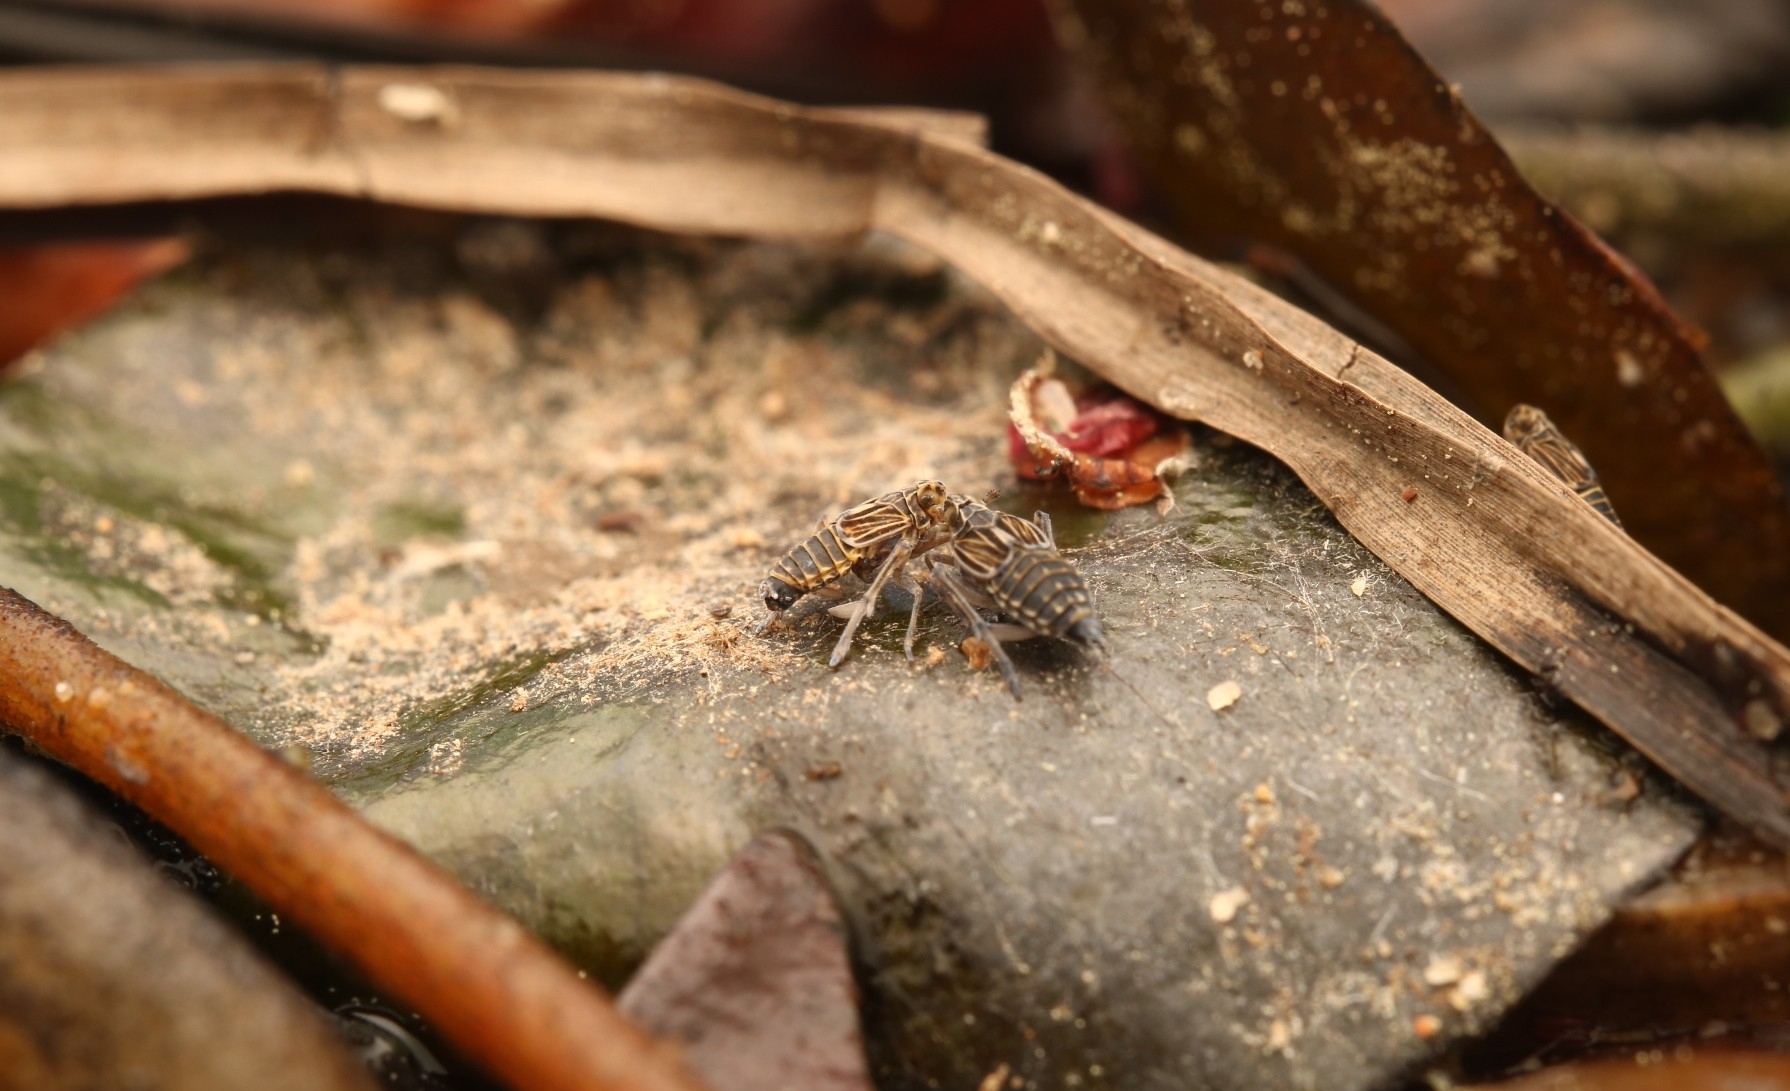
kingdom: Animalia
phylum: Arthropoda
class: Insecta
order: Hemiptera
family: Delphacidae
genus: Megamelus
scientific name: Megamelus davisi
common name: Planthopper
